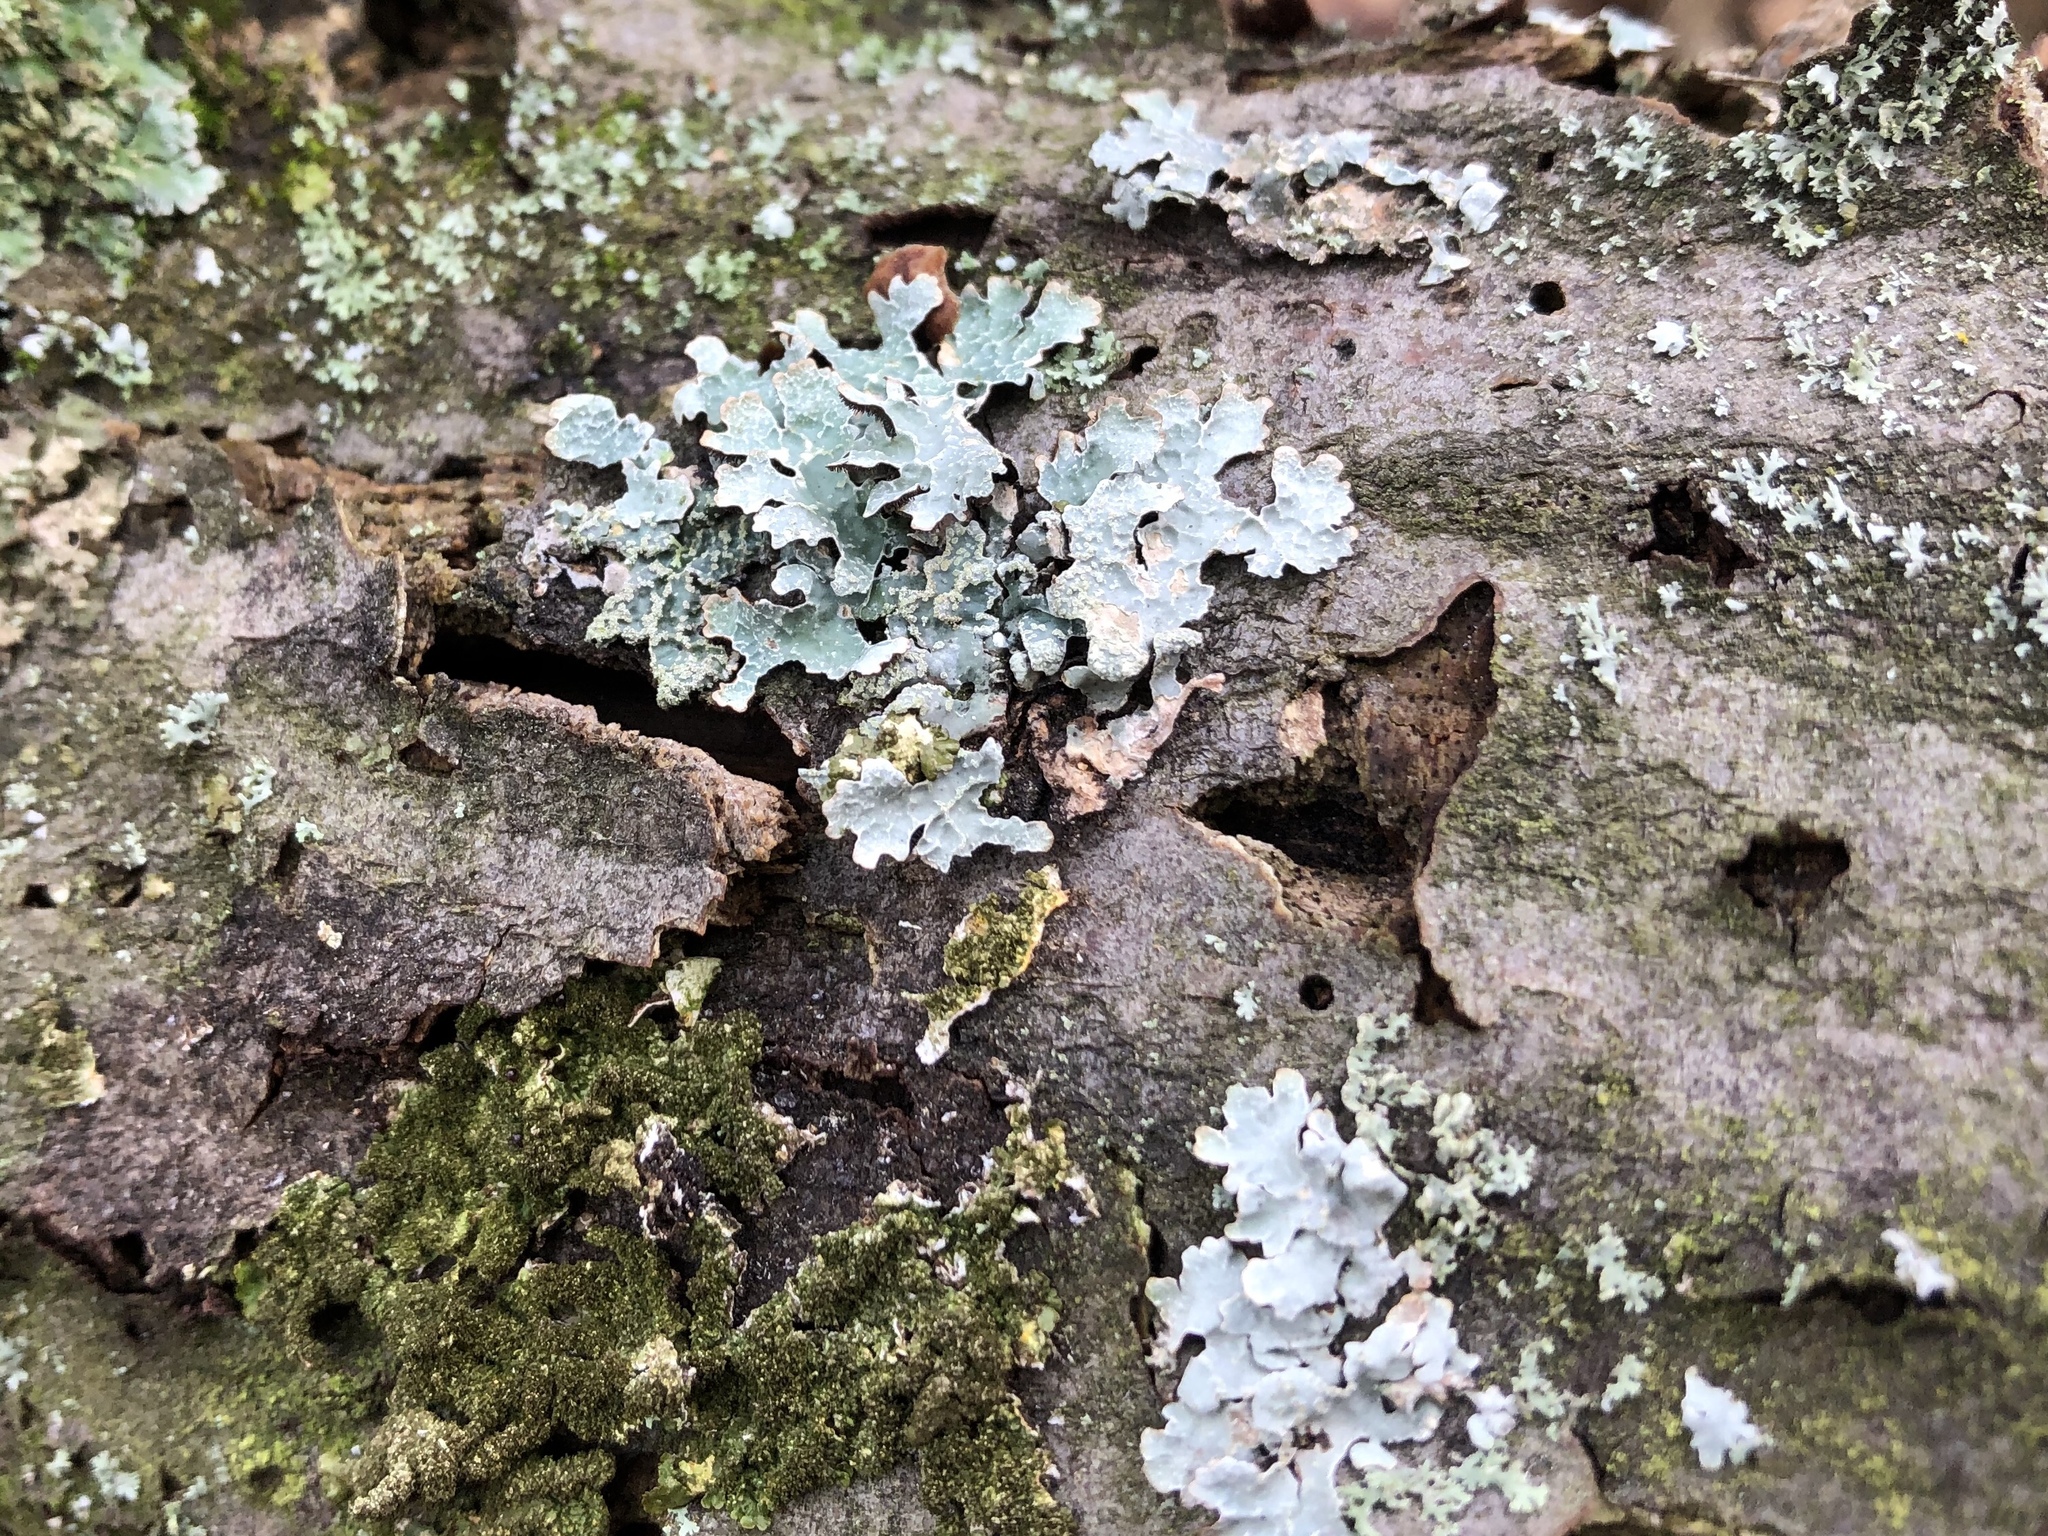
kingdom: Fungi
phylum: Ascomycota
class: Lecanoromycetes
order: Lecanorales
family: Parmeliaceae
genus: Parmelia
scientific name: Parmelia sulcata
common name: Netted shield lichen
